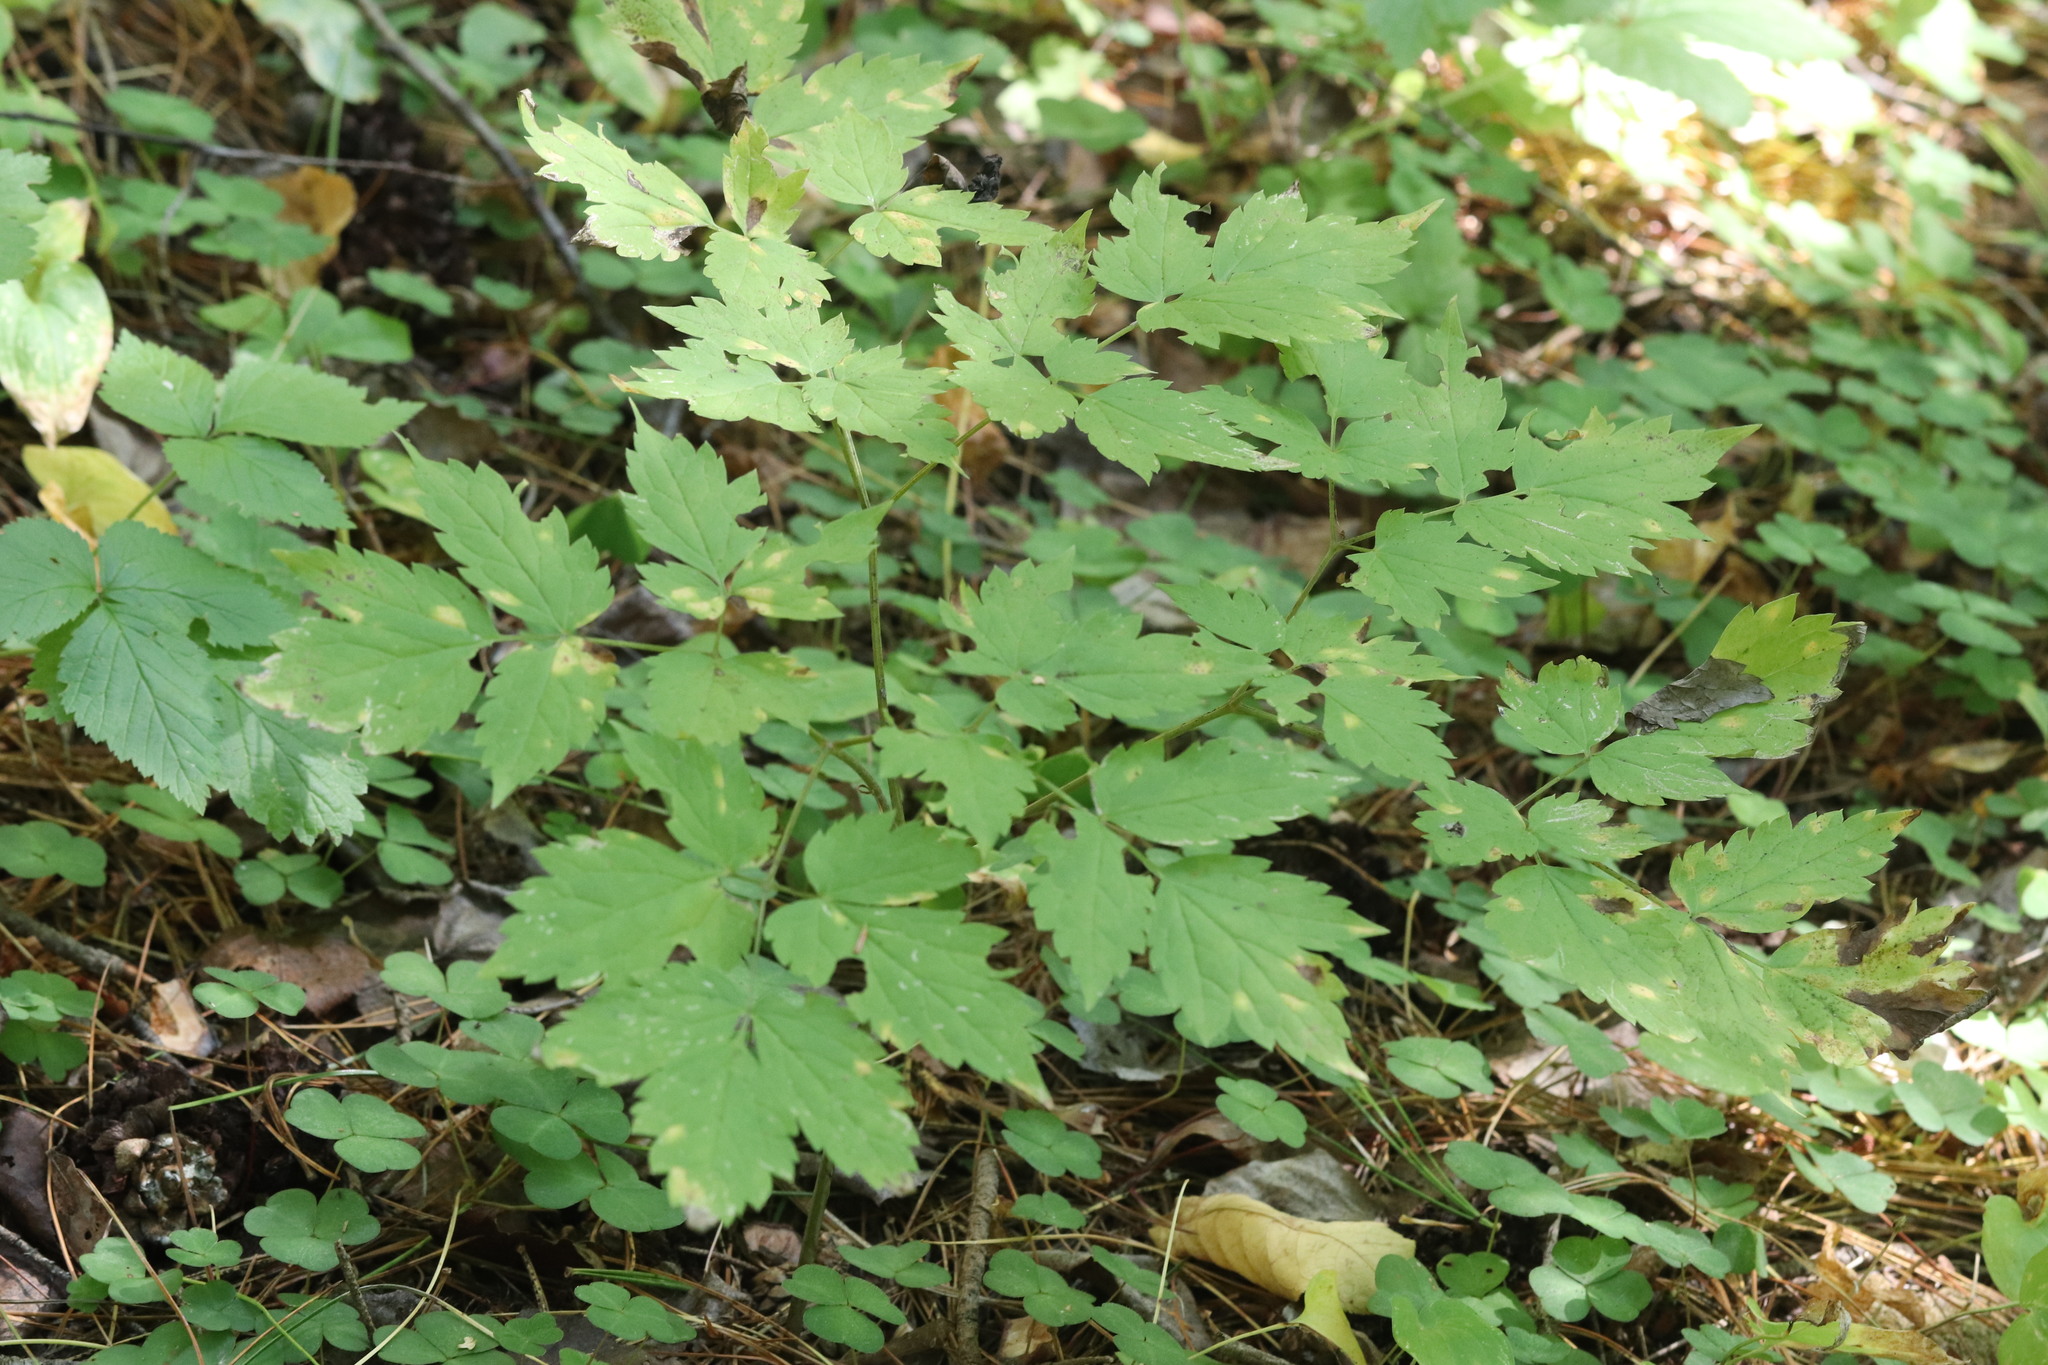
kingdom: Plantae
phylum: Tracheophyta
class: Magnoliopsida
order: Ranunculales
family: Ranunculaceae
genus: Actaea
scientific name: Actaea erythrocarpa
